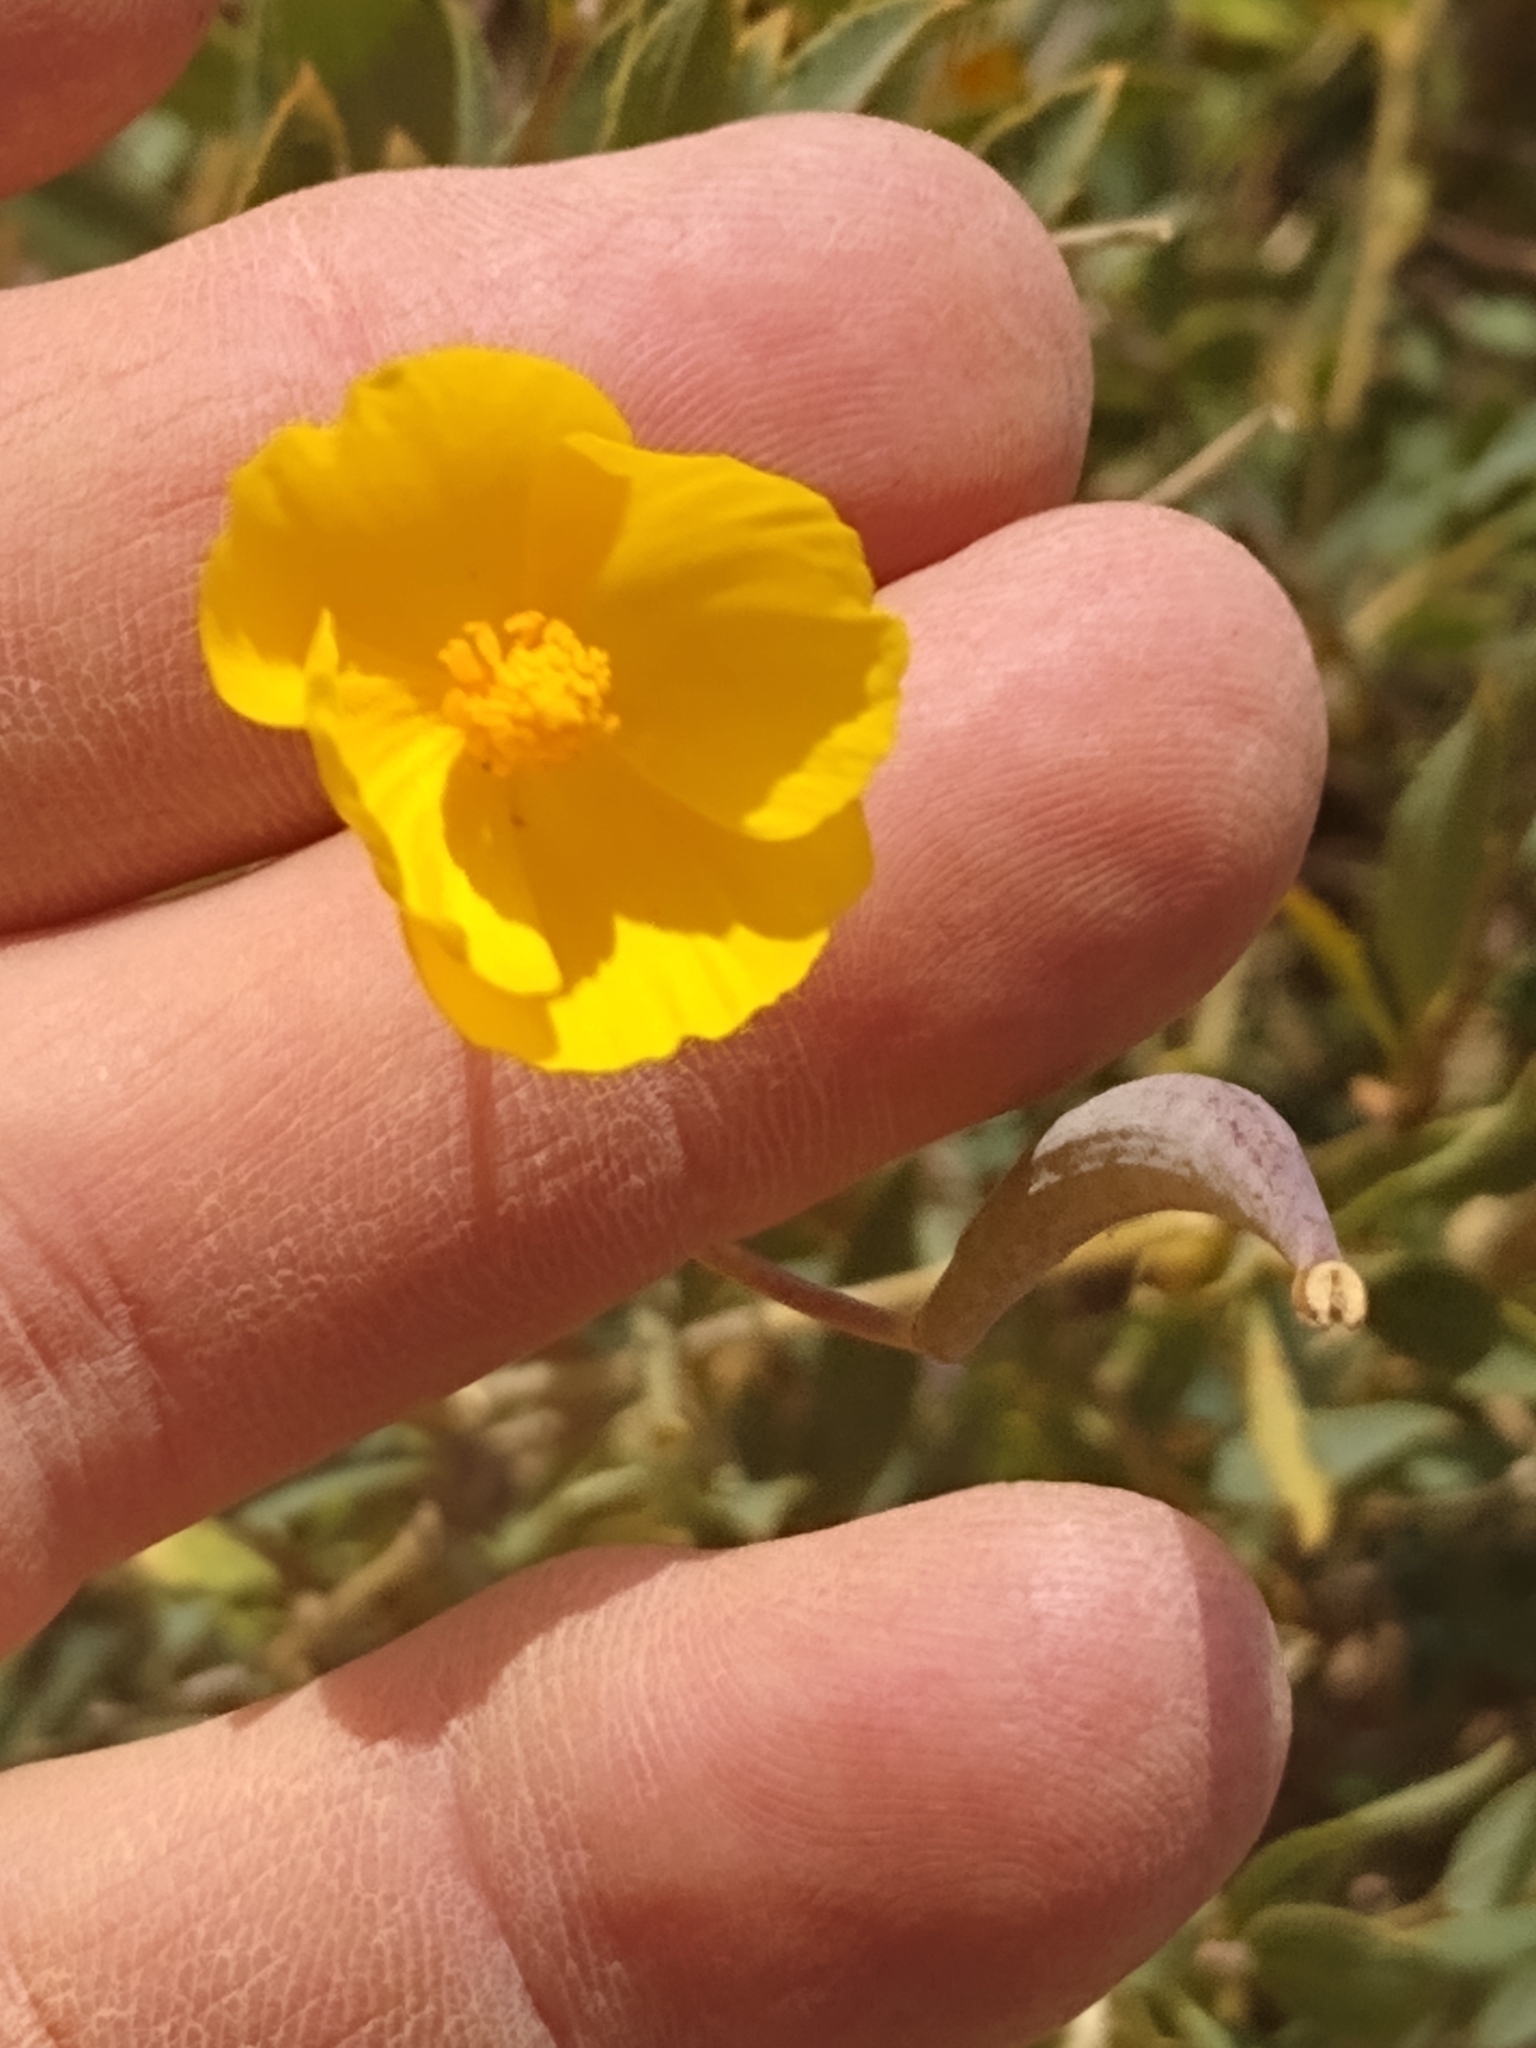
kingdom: Plantae
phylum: Tracheophyta
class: Magnoliopsida
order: Ranunculales
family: Papaveraceae
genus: Dendromecon
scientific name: Dendromecon rigida
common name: Tree poppy
